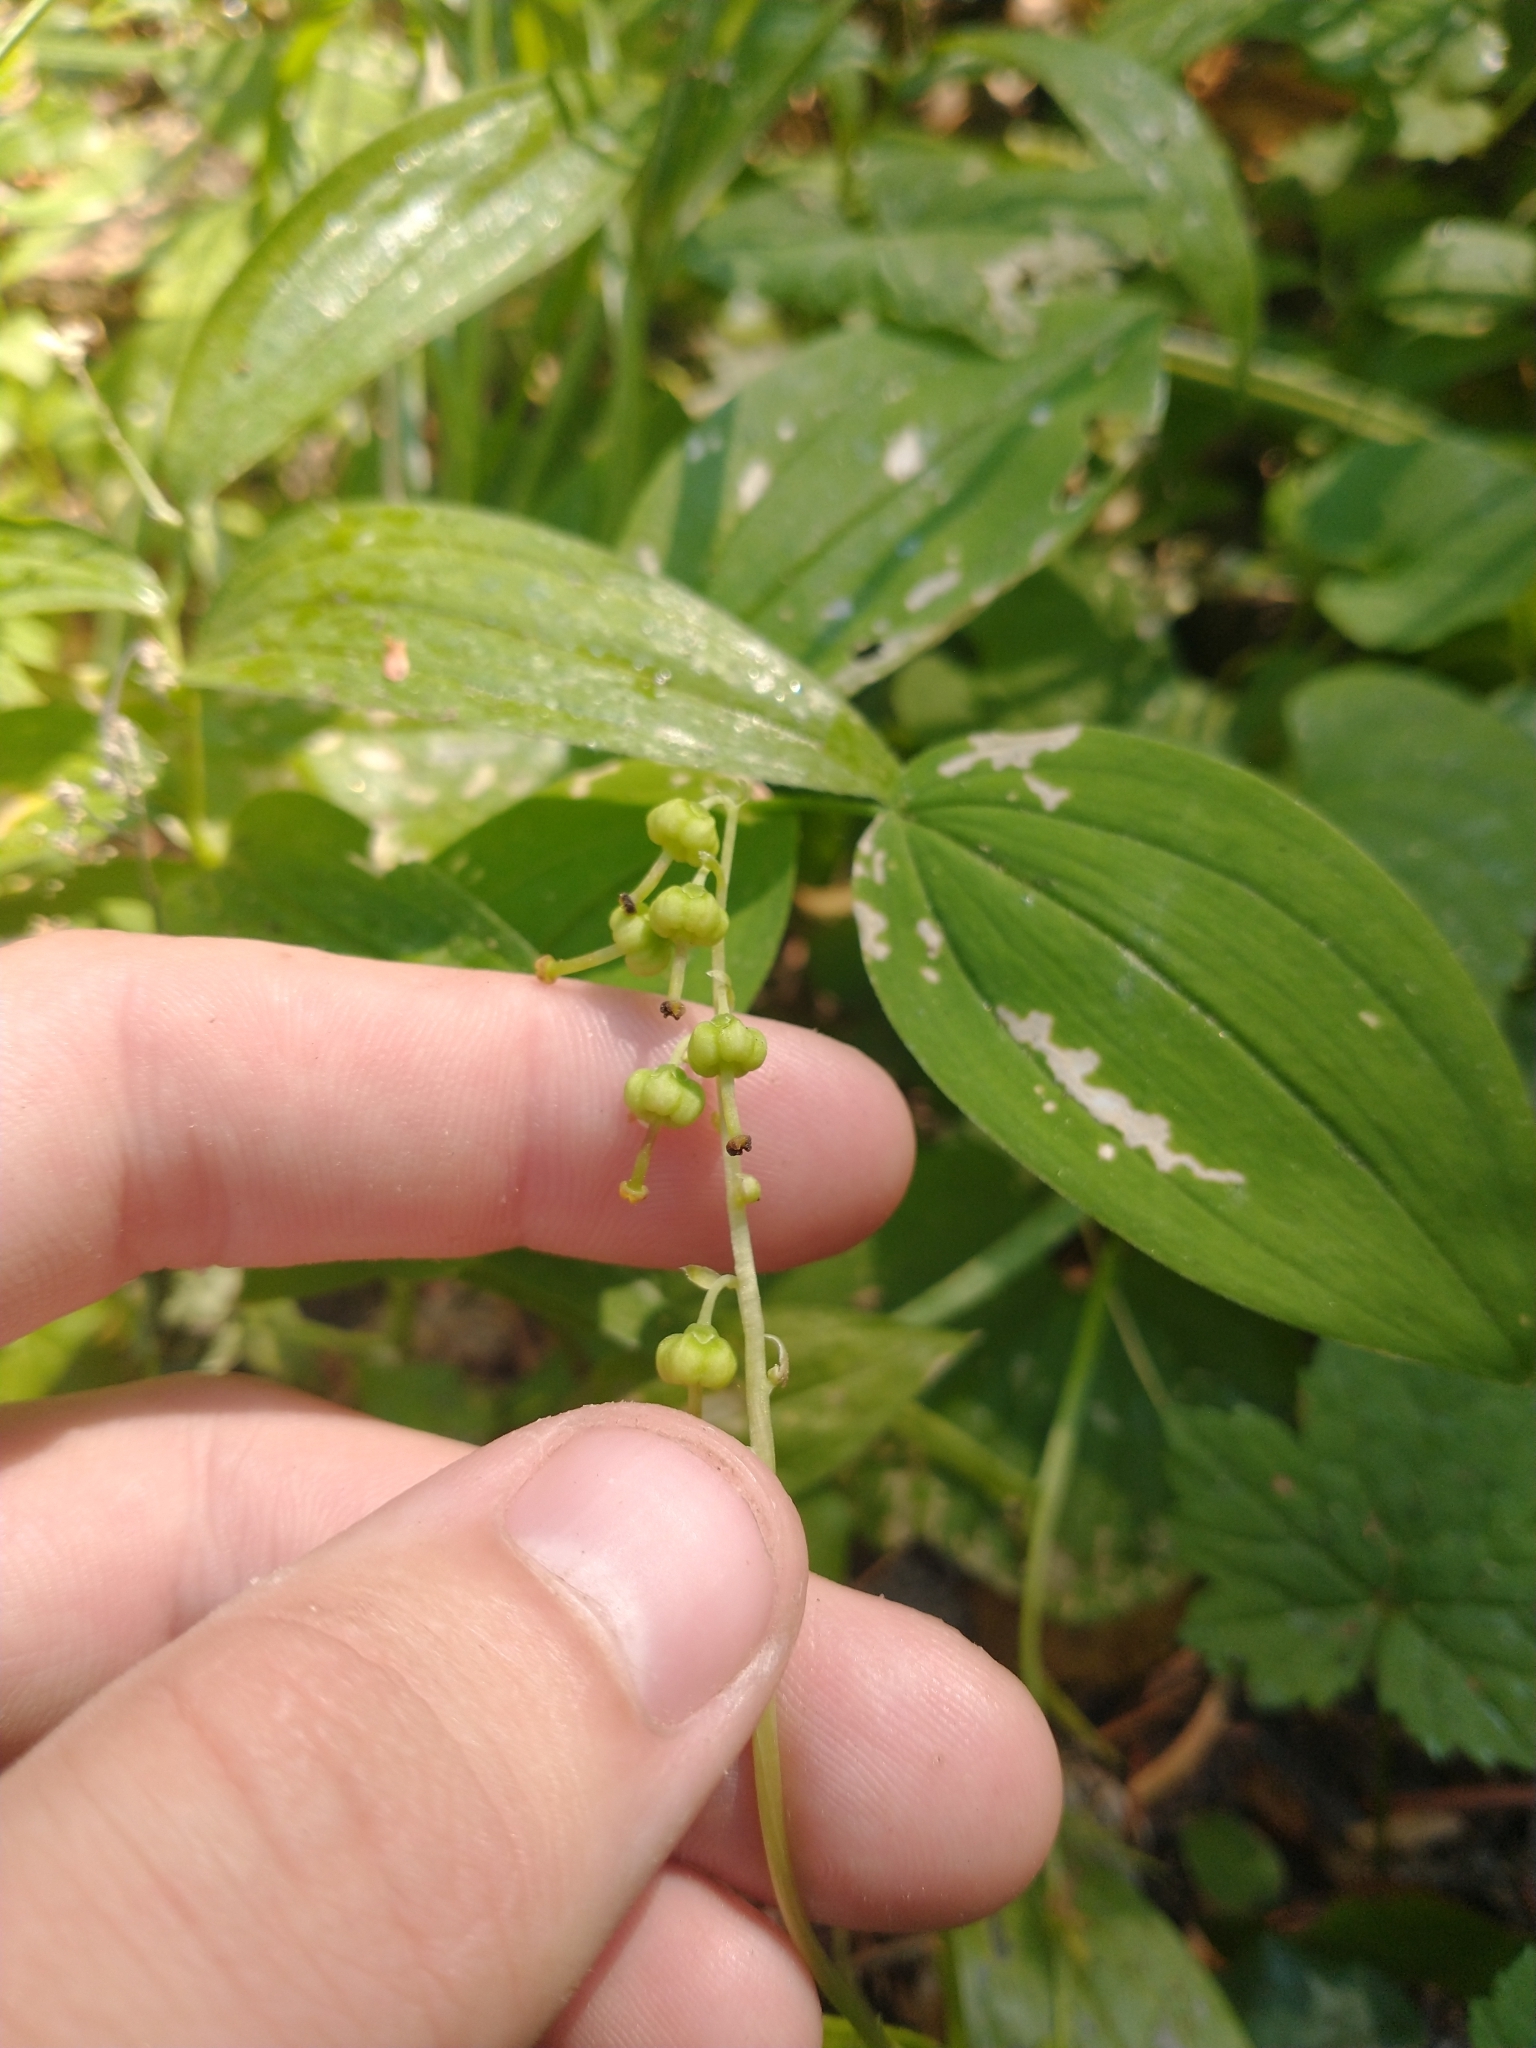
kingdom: Plantae
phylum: Tracheophyta
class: Magnoliopsida
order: Ericales
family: Ericaceae
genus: Orthilia
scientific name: Orthilia secunda
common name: One-sided orthilia
